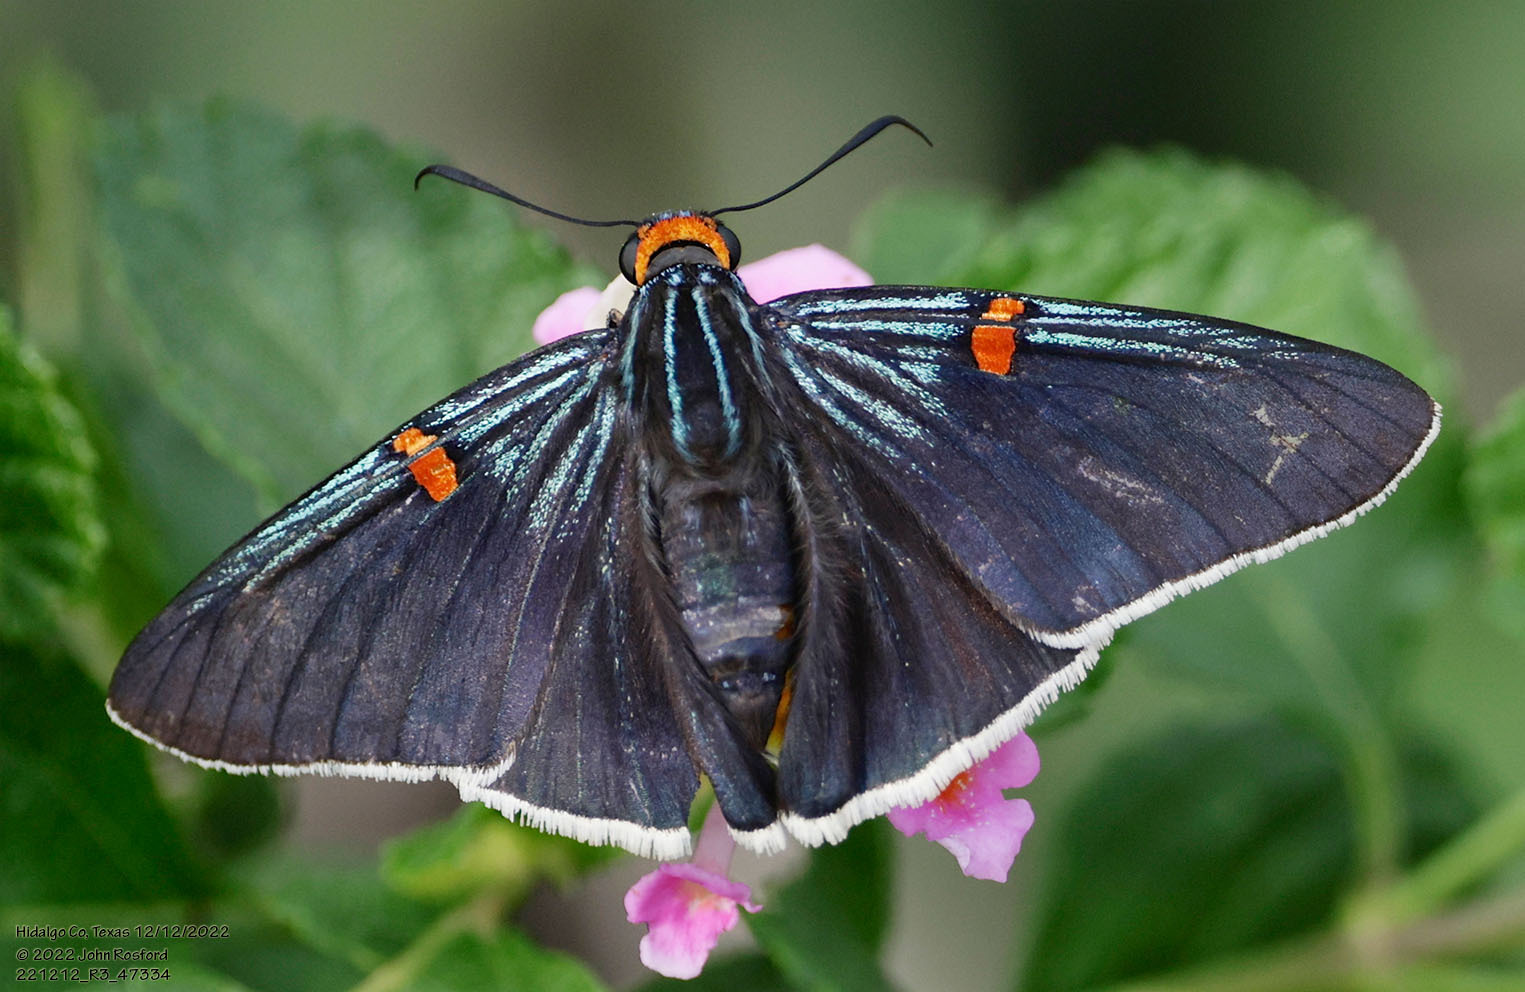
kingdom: Animalia
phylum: Arthropoda
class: Insecta
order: Lepidoptera
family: Hesperiidae
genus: Phocides
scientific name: Phocides lilea
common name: Guava skipper
